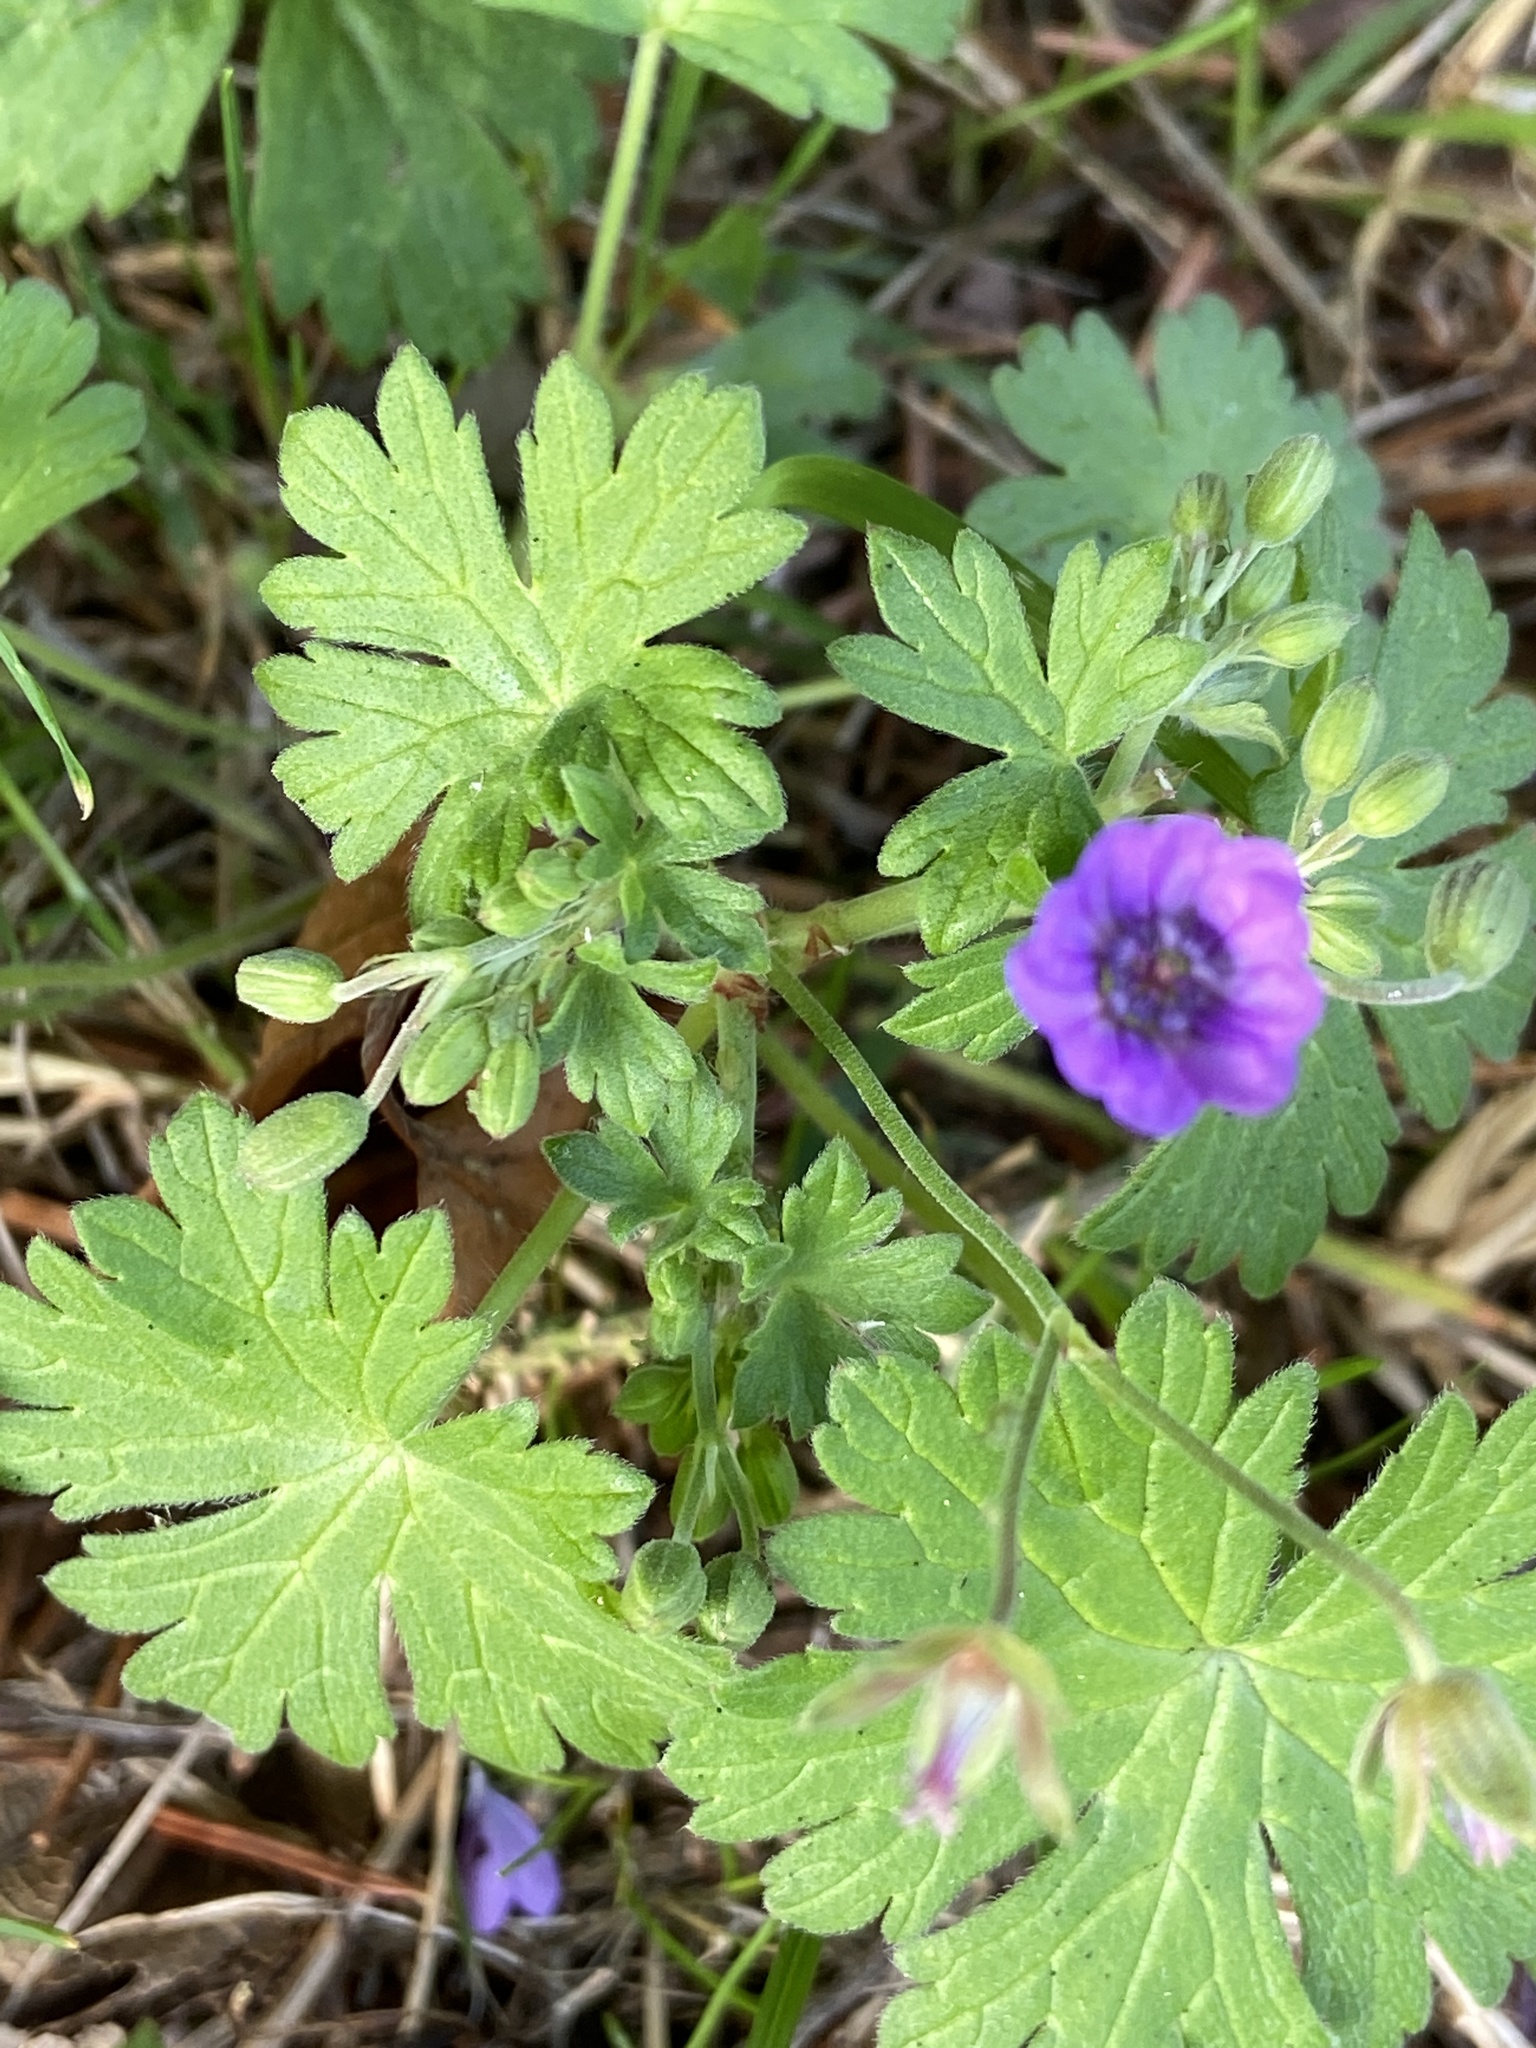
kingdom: Plantae
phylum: Tracheophyta
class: Magnoliopsida
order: Geraniales
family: Geraniaceae
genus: Geranium
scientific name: Geranium pyrenaicum
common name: Hedgerow crane's-bill
